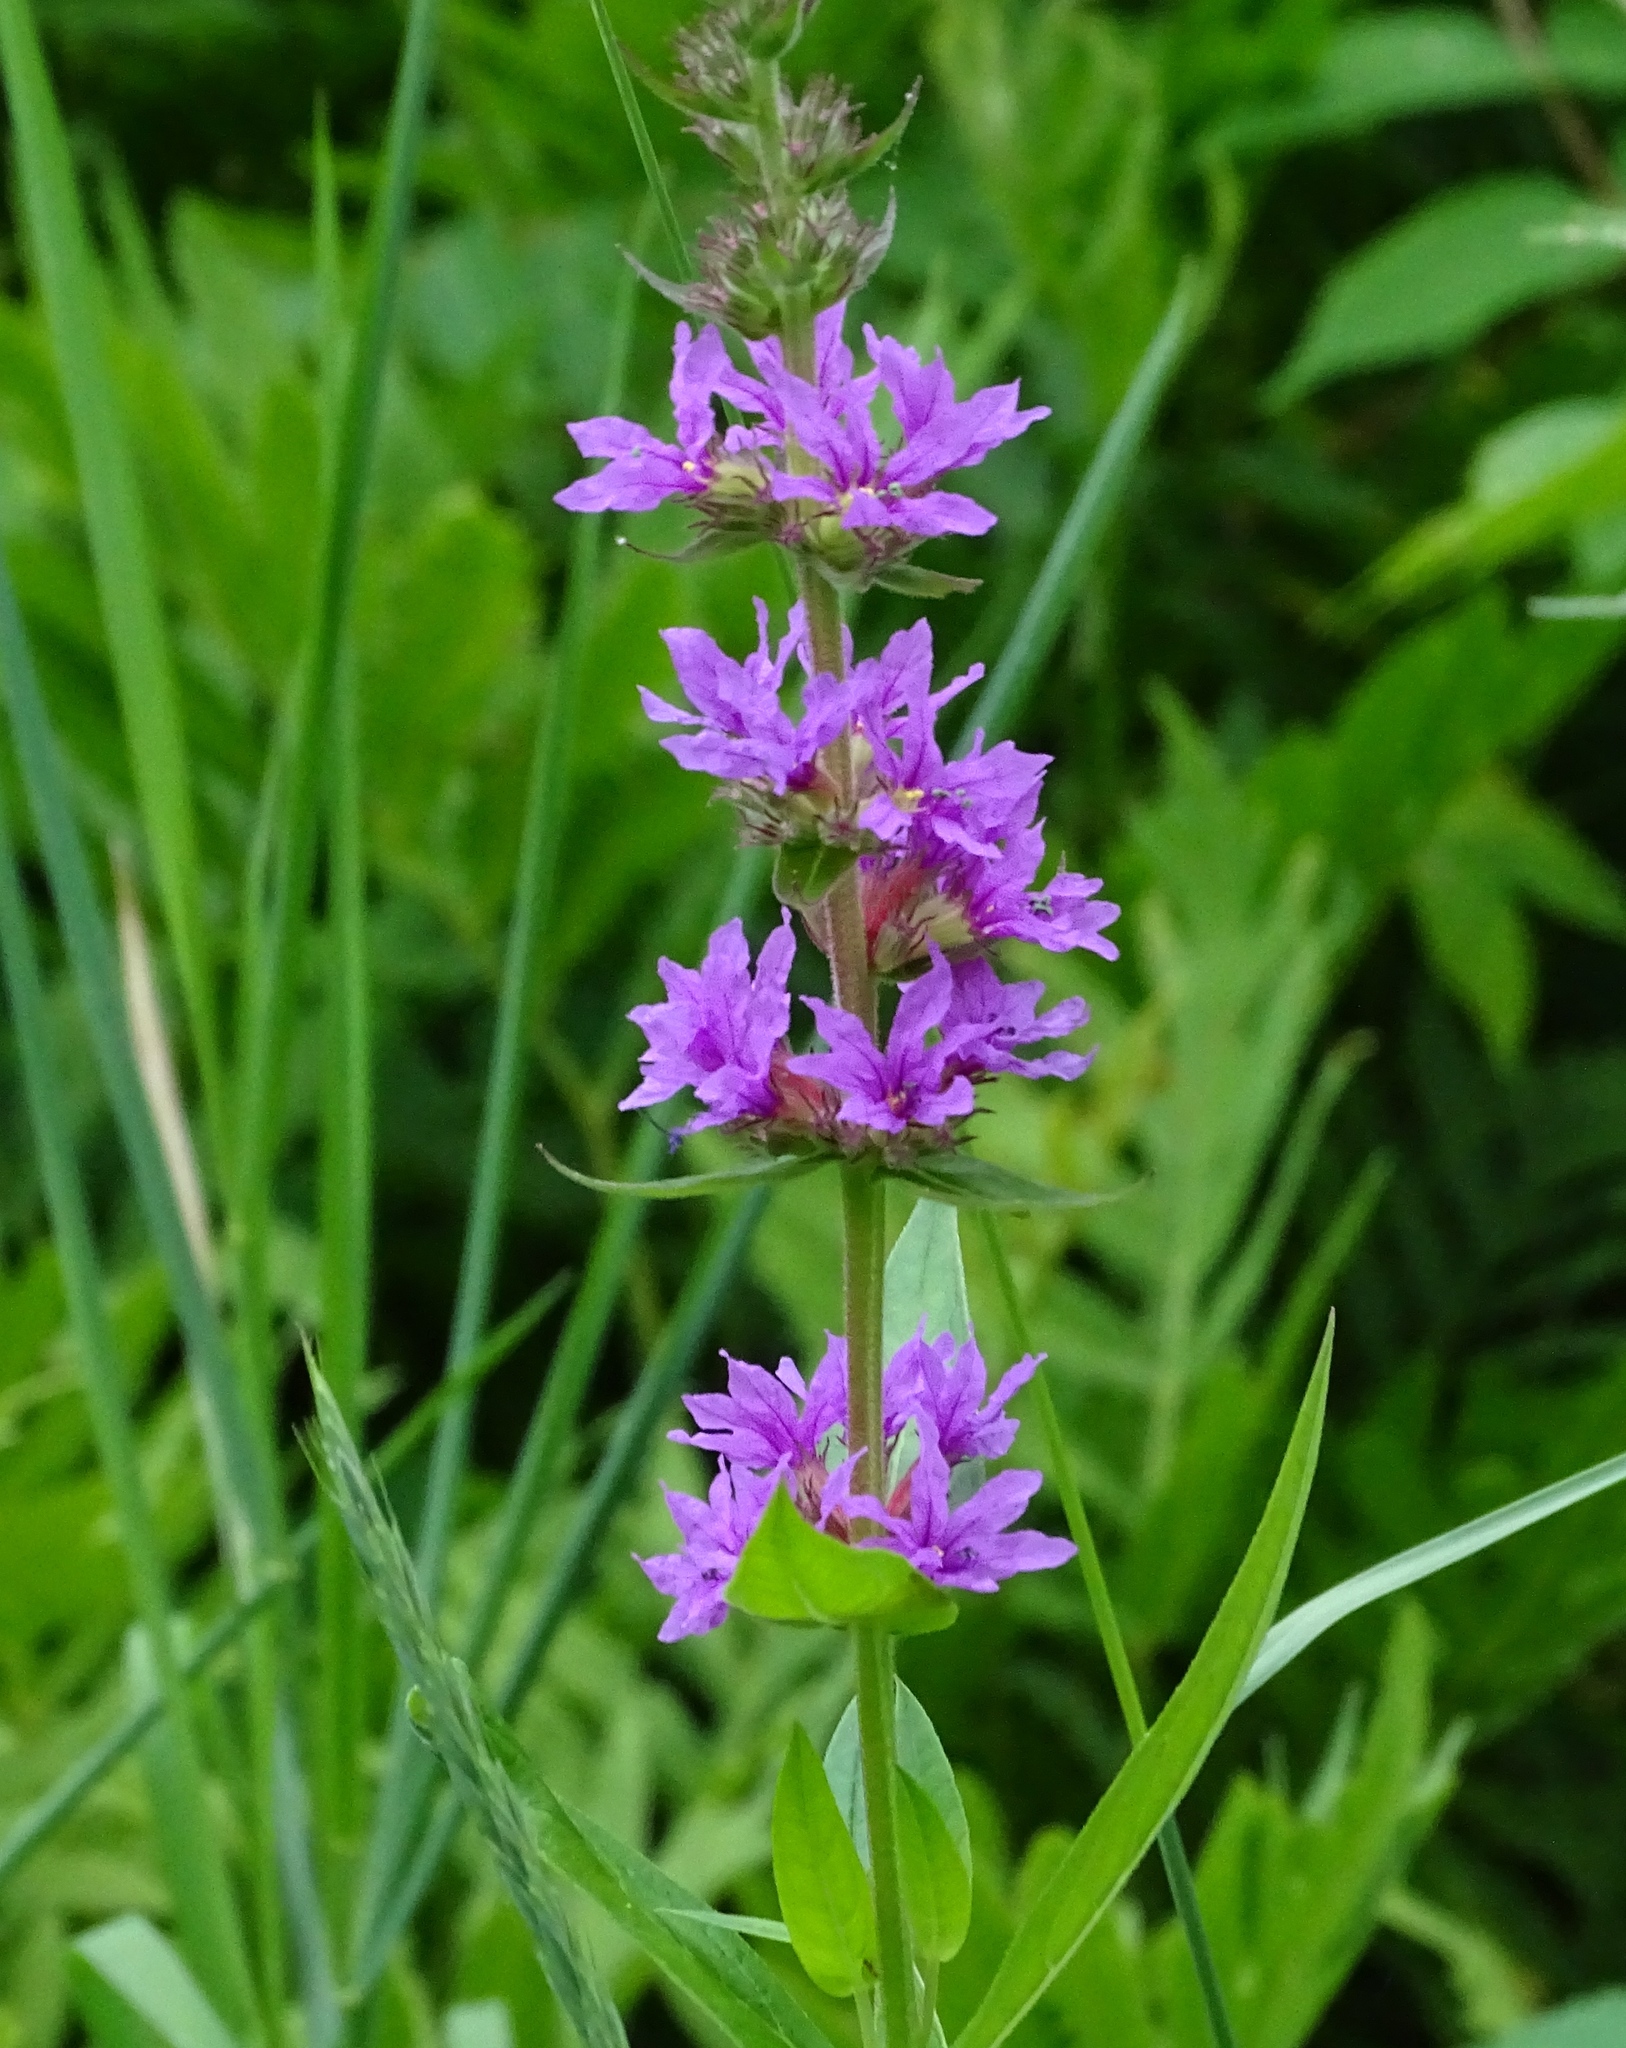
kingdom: Plantae
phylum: Tracheophyta
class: Magnoliopsida
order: Myrtales
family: Lythraceae
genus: Lythrum
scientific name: Lythrum salicaria
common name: Purple loosestrife
